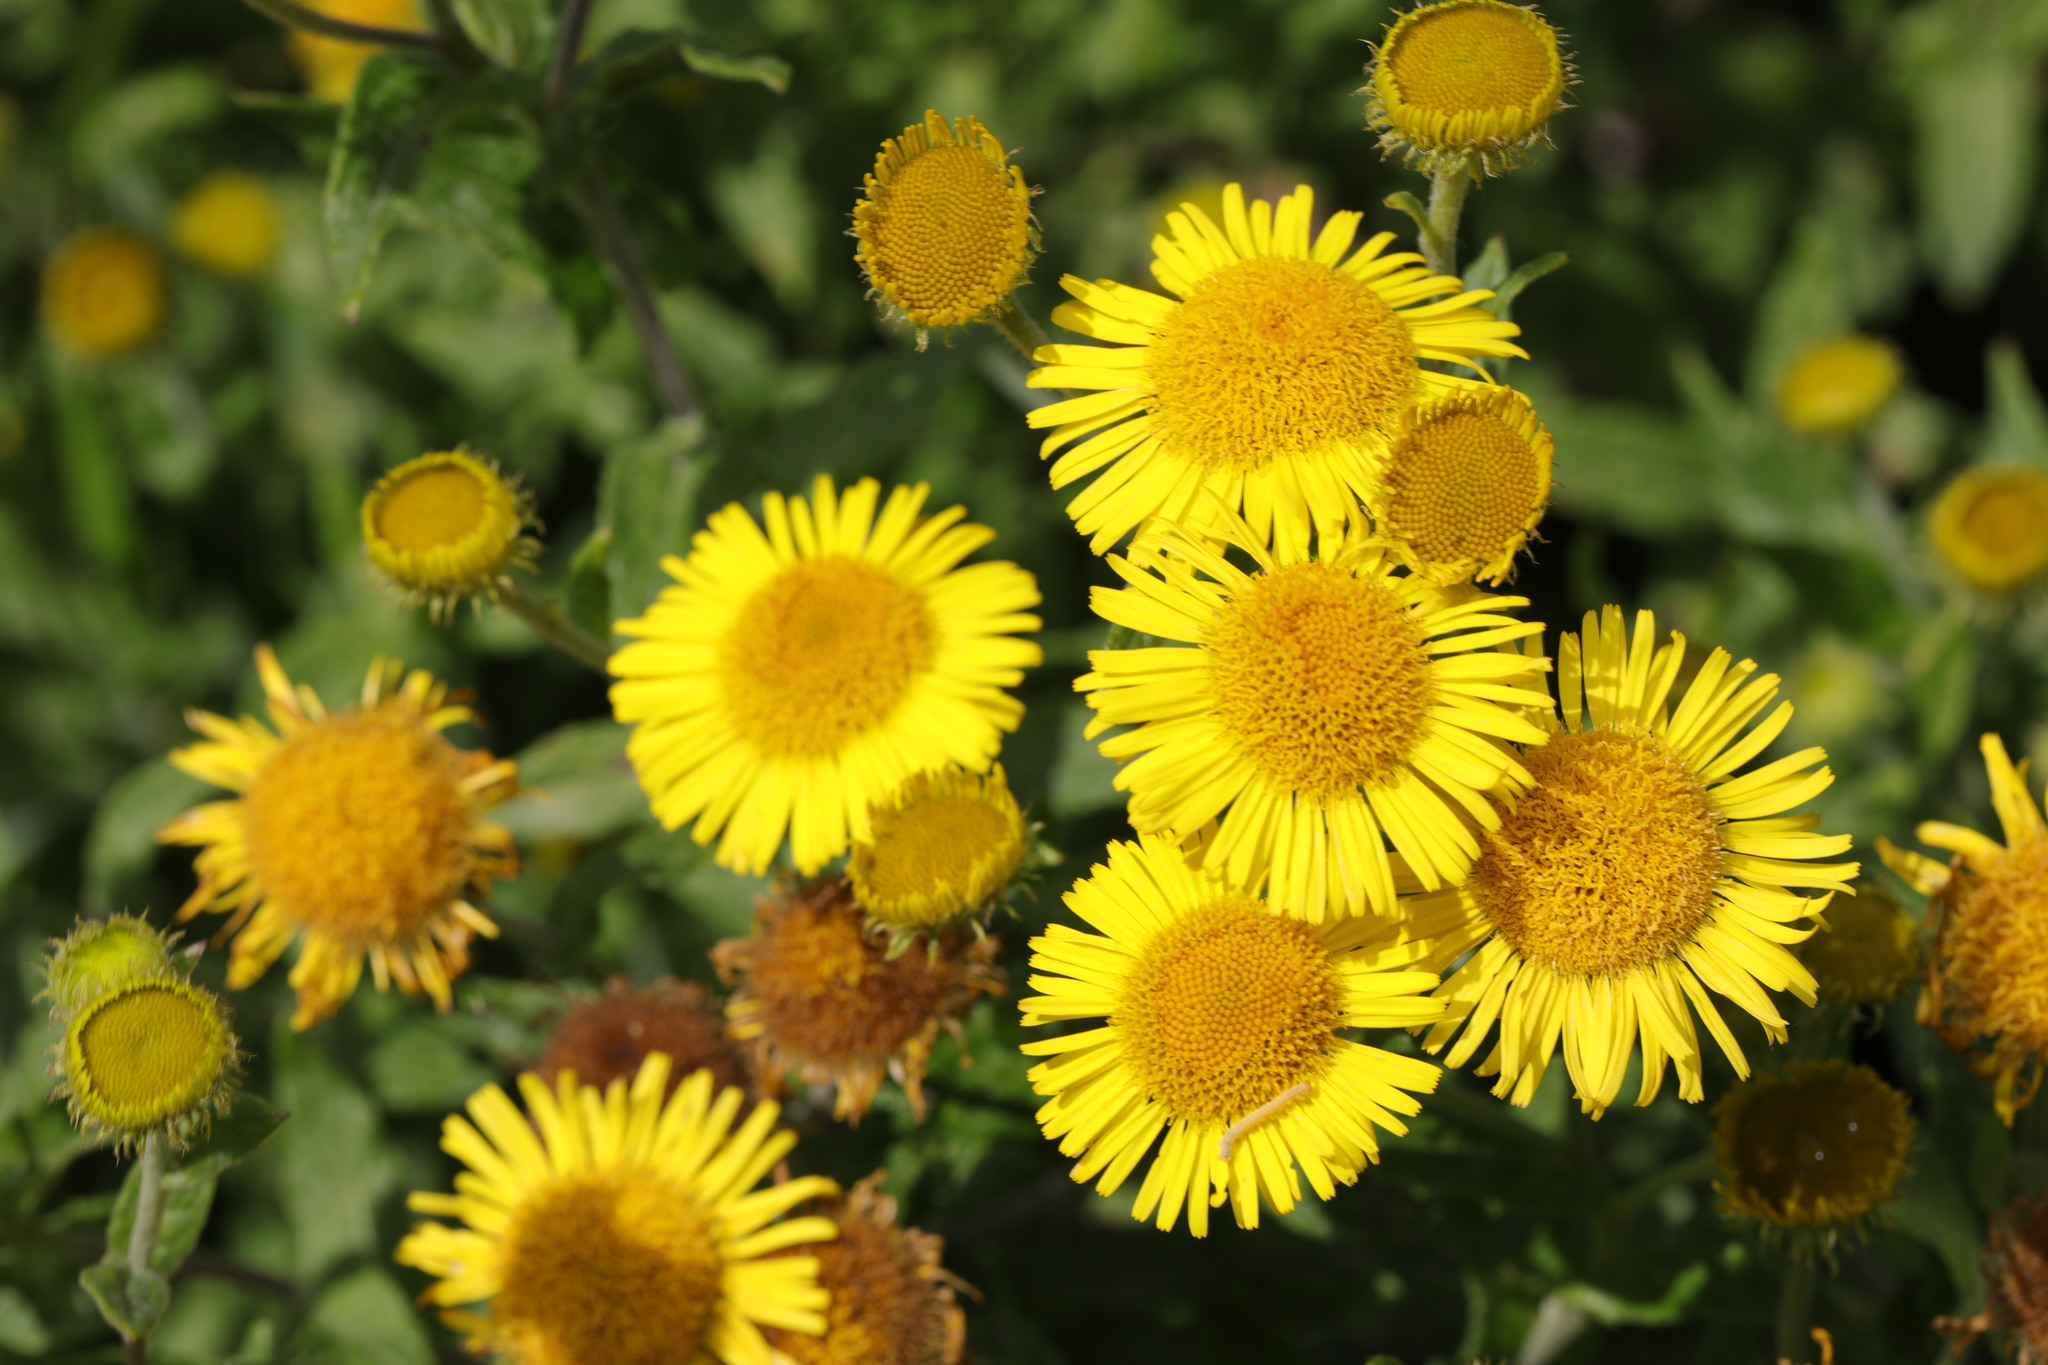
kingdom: Plantae
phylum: Tracheophyta
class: Magnoliopsida
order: Asterales
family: Asteraceae
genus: Pulicaria
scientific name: Pulicaria dysenterica
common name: Common fleabane
